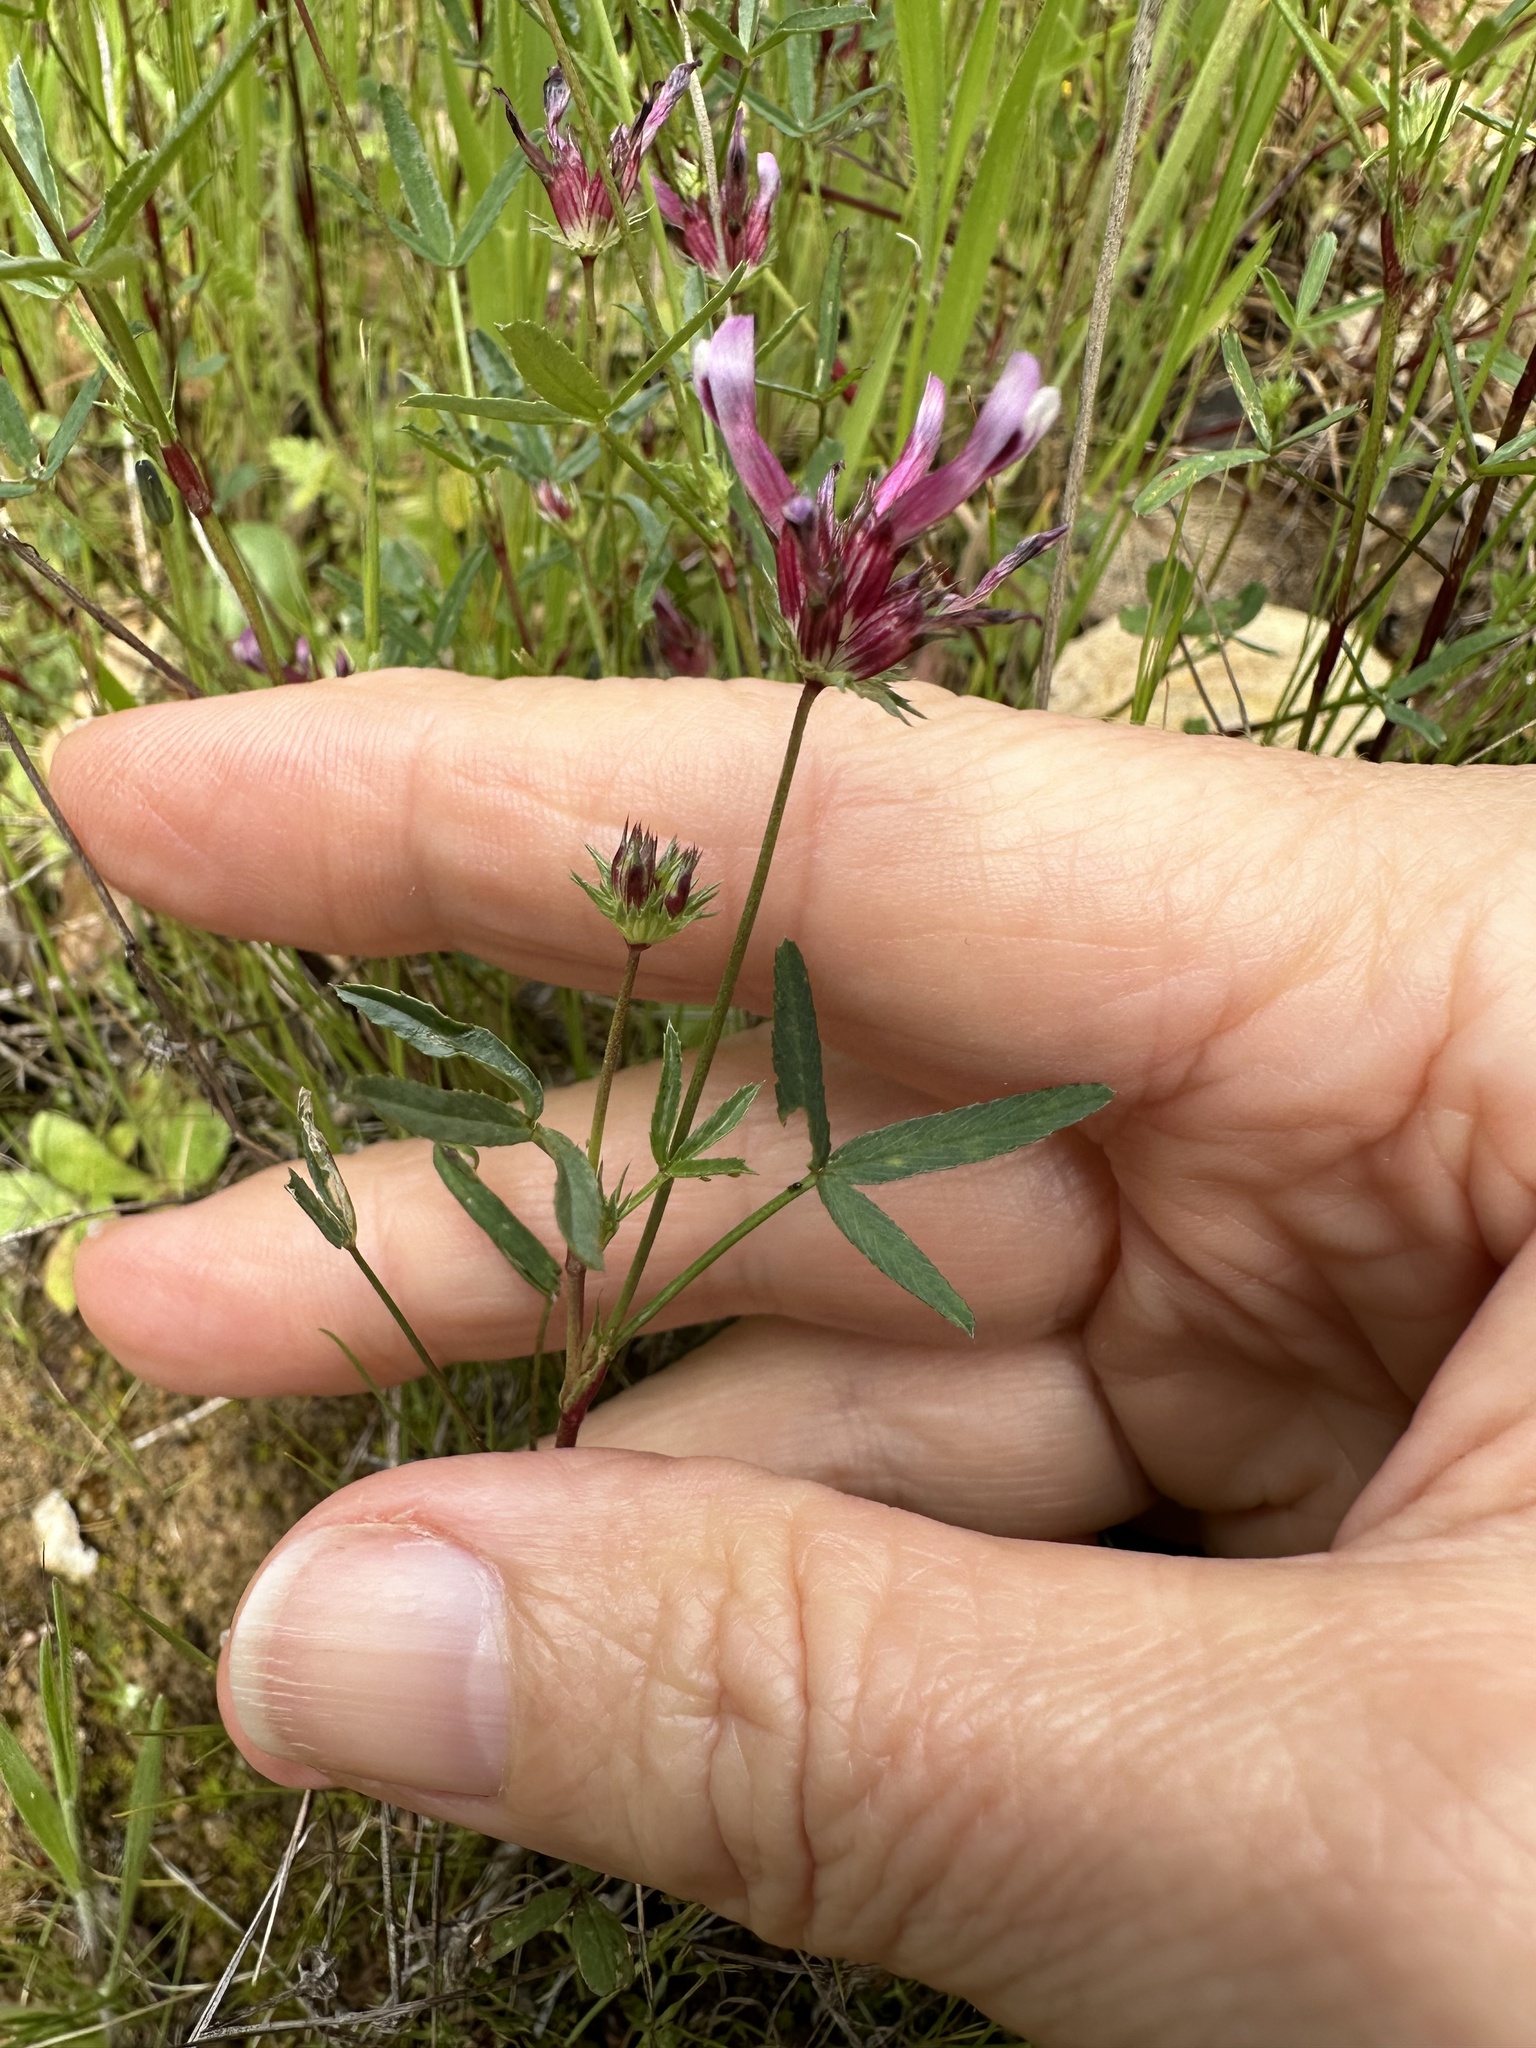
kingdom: Plantae
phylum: Tracheophyta
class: Magnoliopsida
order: Fabales
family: Fabaceae
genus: Trifolium
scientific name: Trifolium willdenovii
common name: Tomcat clover
